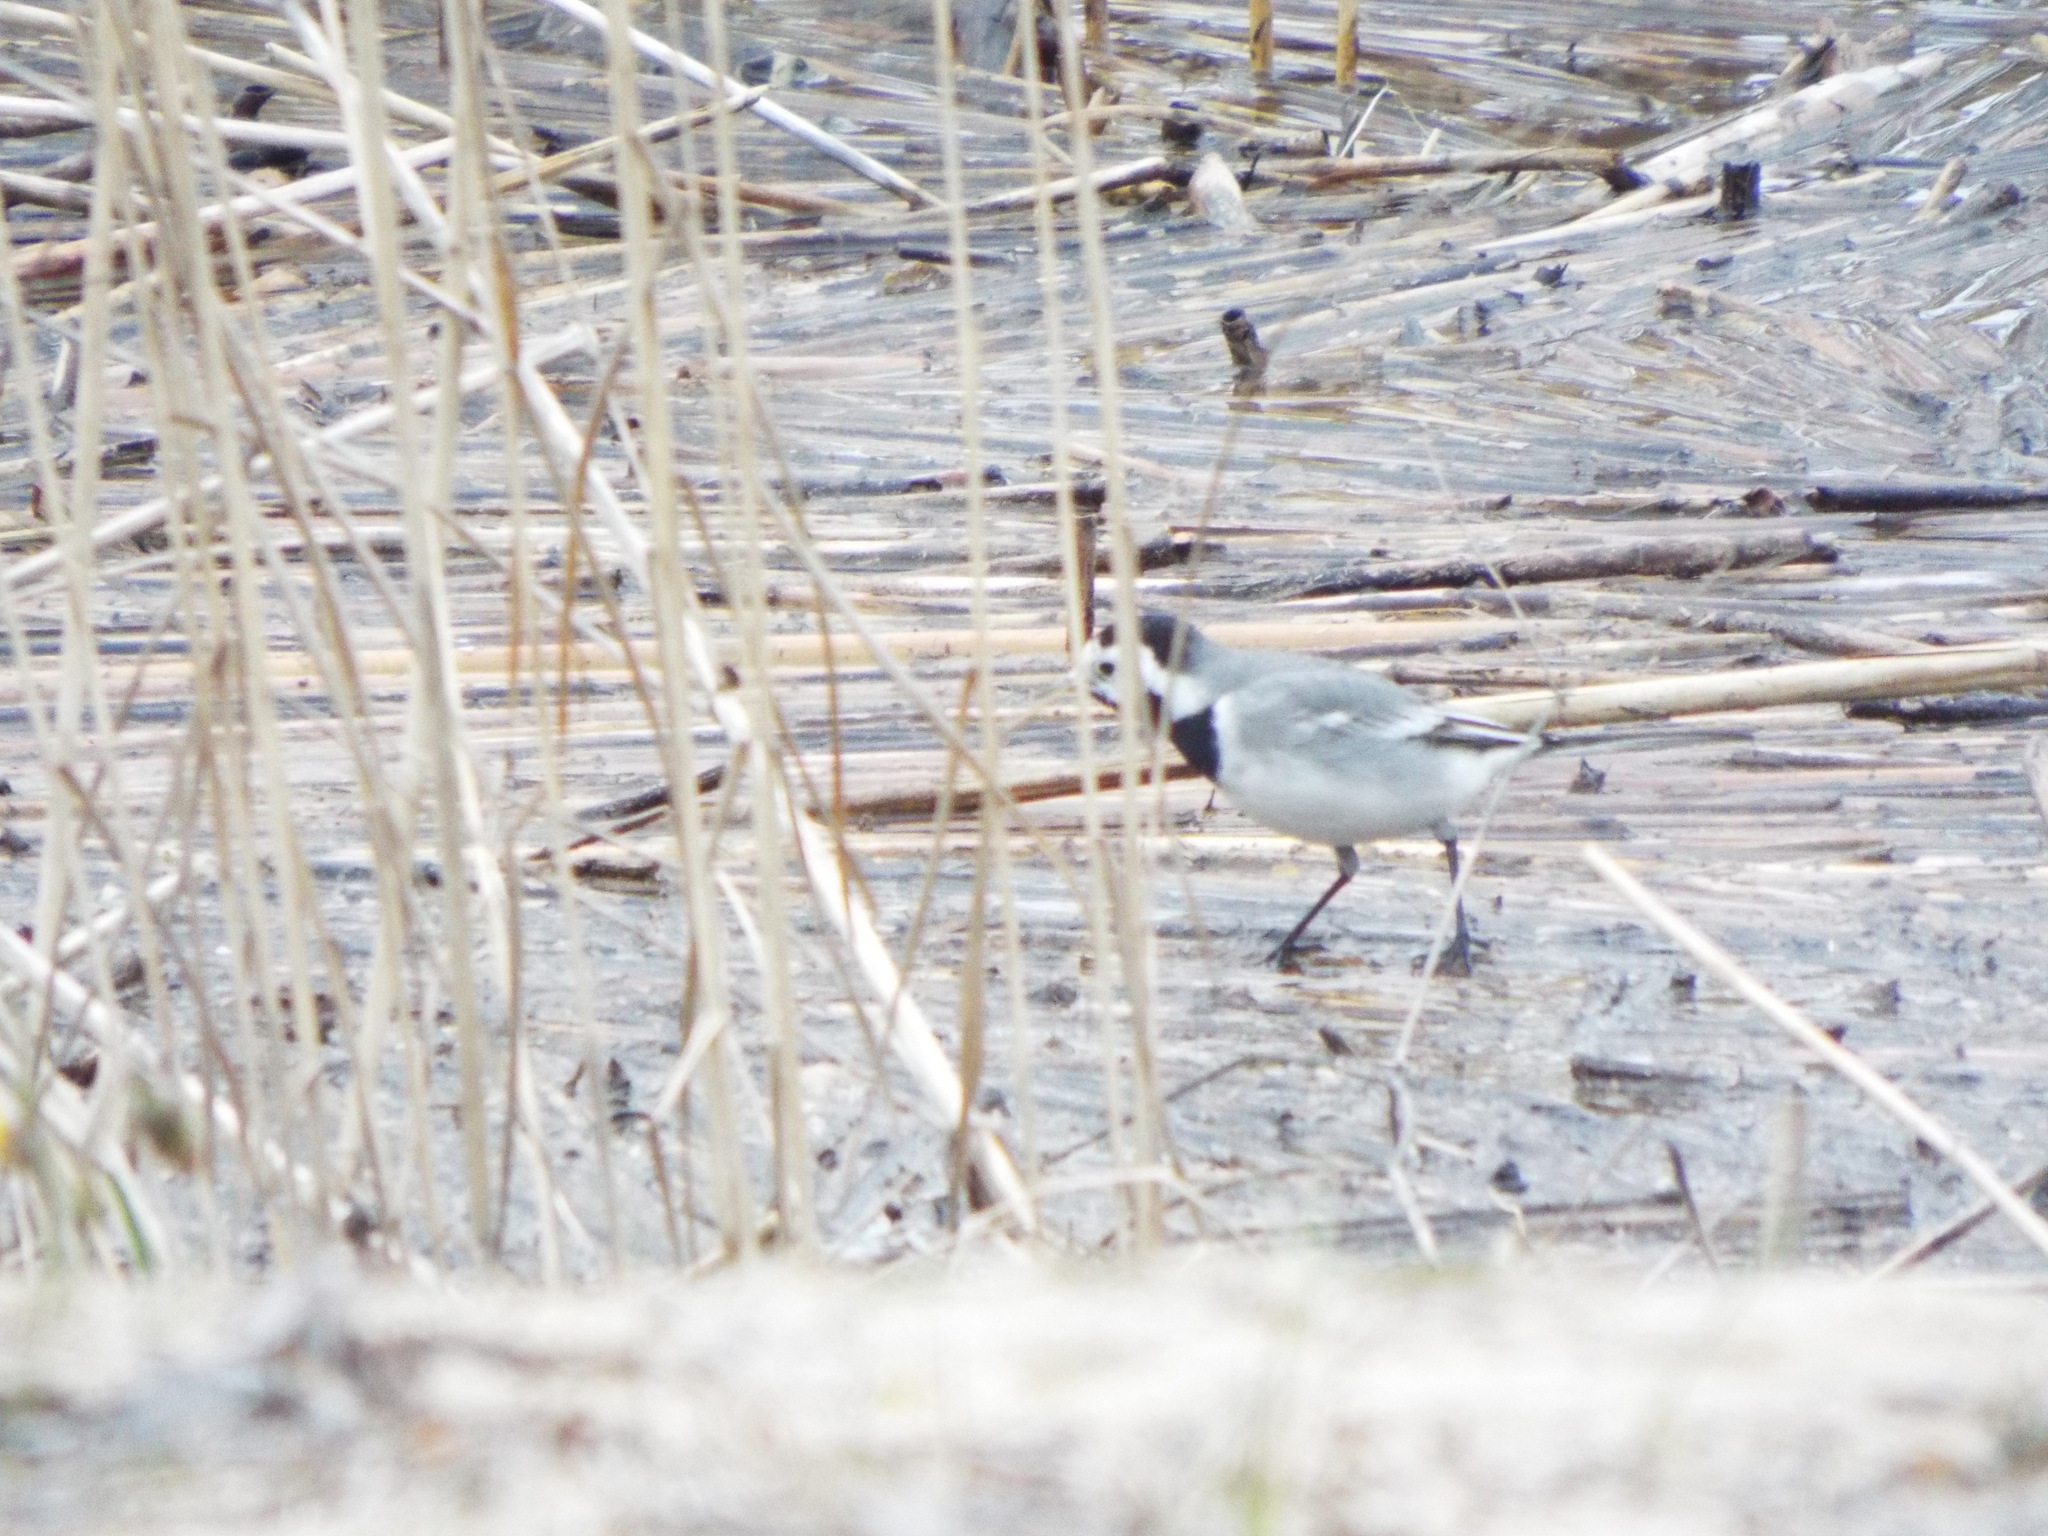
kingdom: Animalia
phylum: Chordata
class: Aves
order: Passeriformes
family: Motacillidae
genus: Motacilla
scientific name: Motacilla alba
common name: White wagtail
